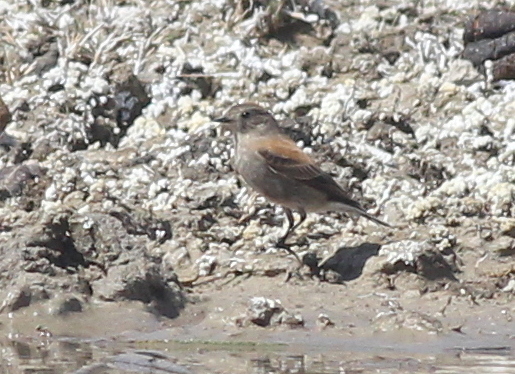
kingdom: Animalia
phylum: Chordata
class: Aves
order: Passeriformes
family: Tyrannidae
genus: Lessonia
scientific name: Lessonia rufa
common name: Austral negrito
